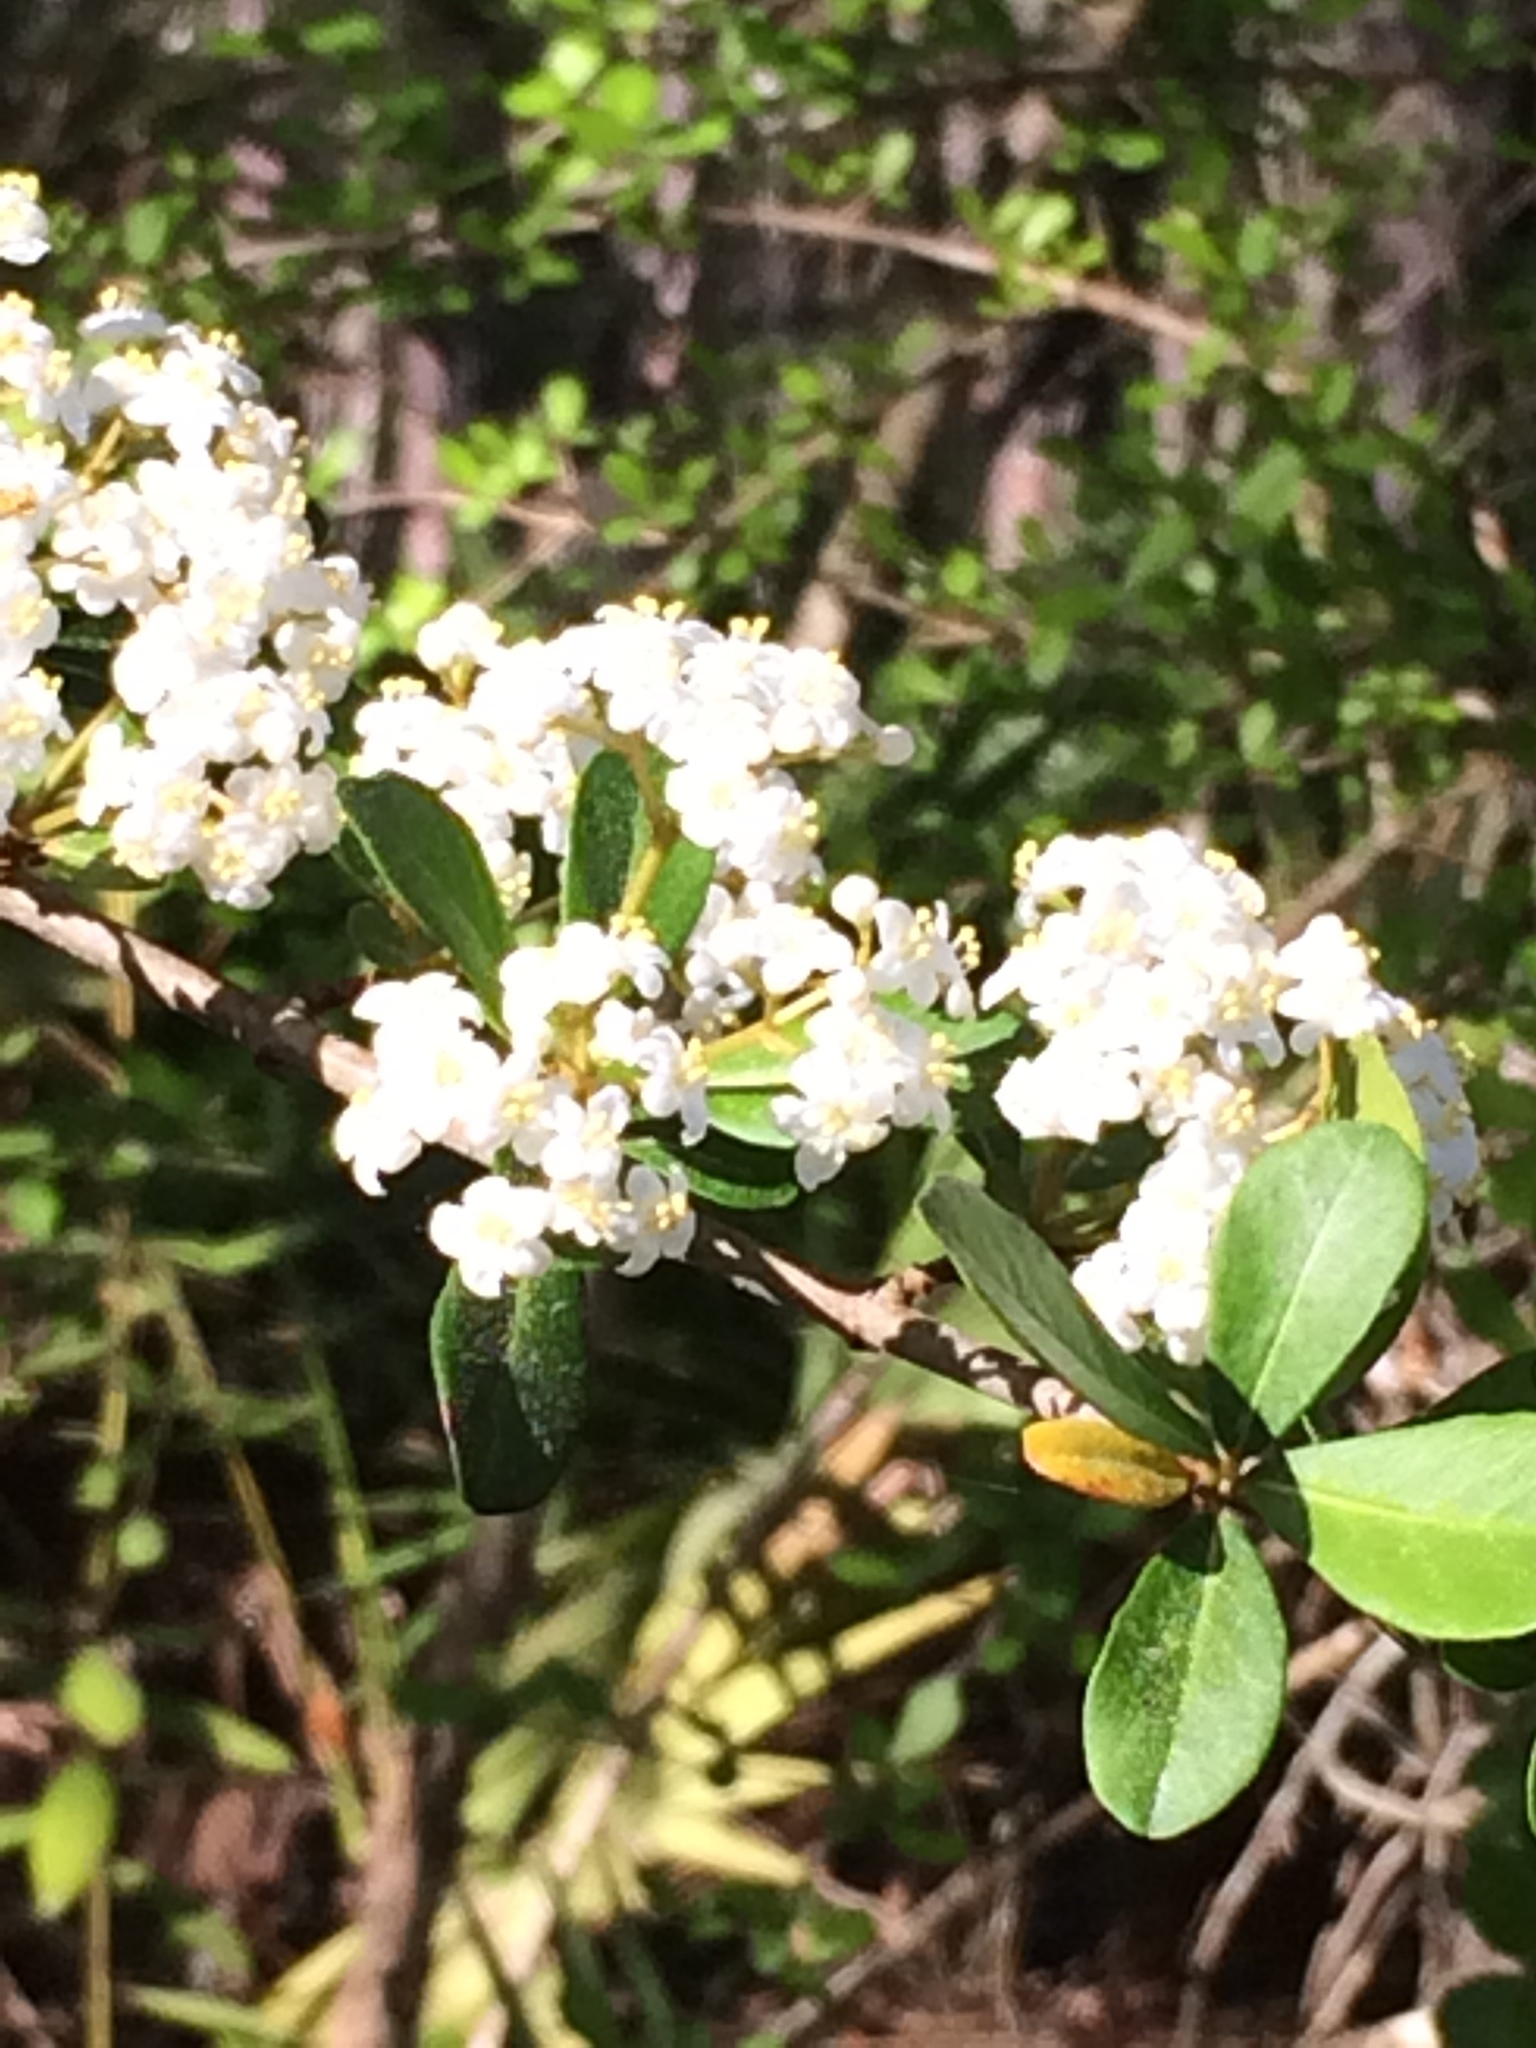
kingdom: Plantae
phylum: Tracheophyta
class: Magnoliopsida
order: Dipsacales
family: Viburnaceae
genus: Viburnum
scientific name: Viburnum obovatum
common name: Walter's viburnum
